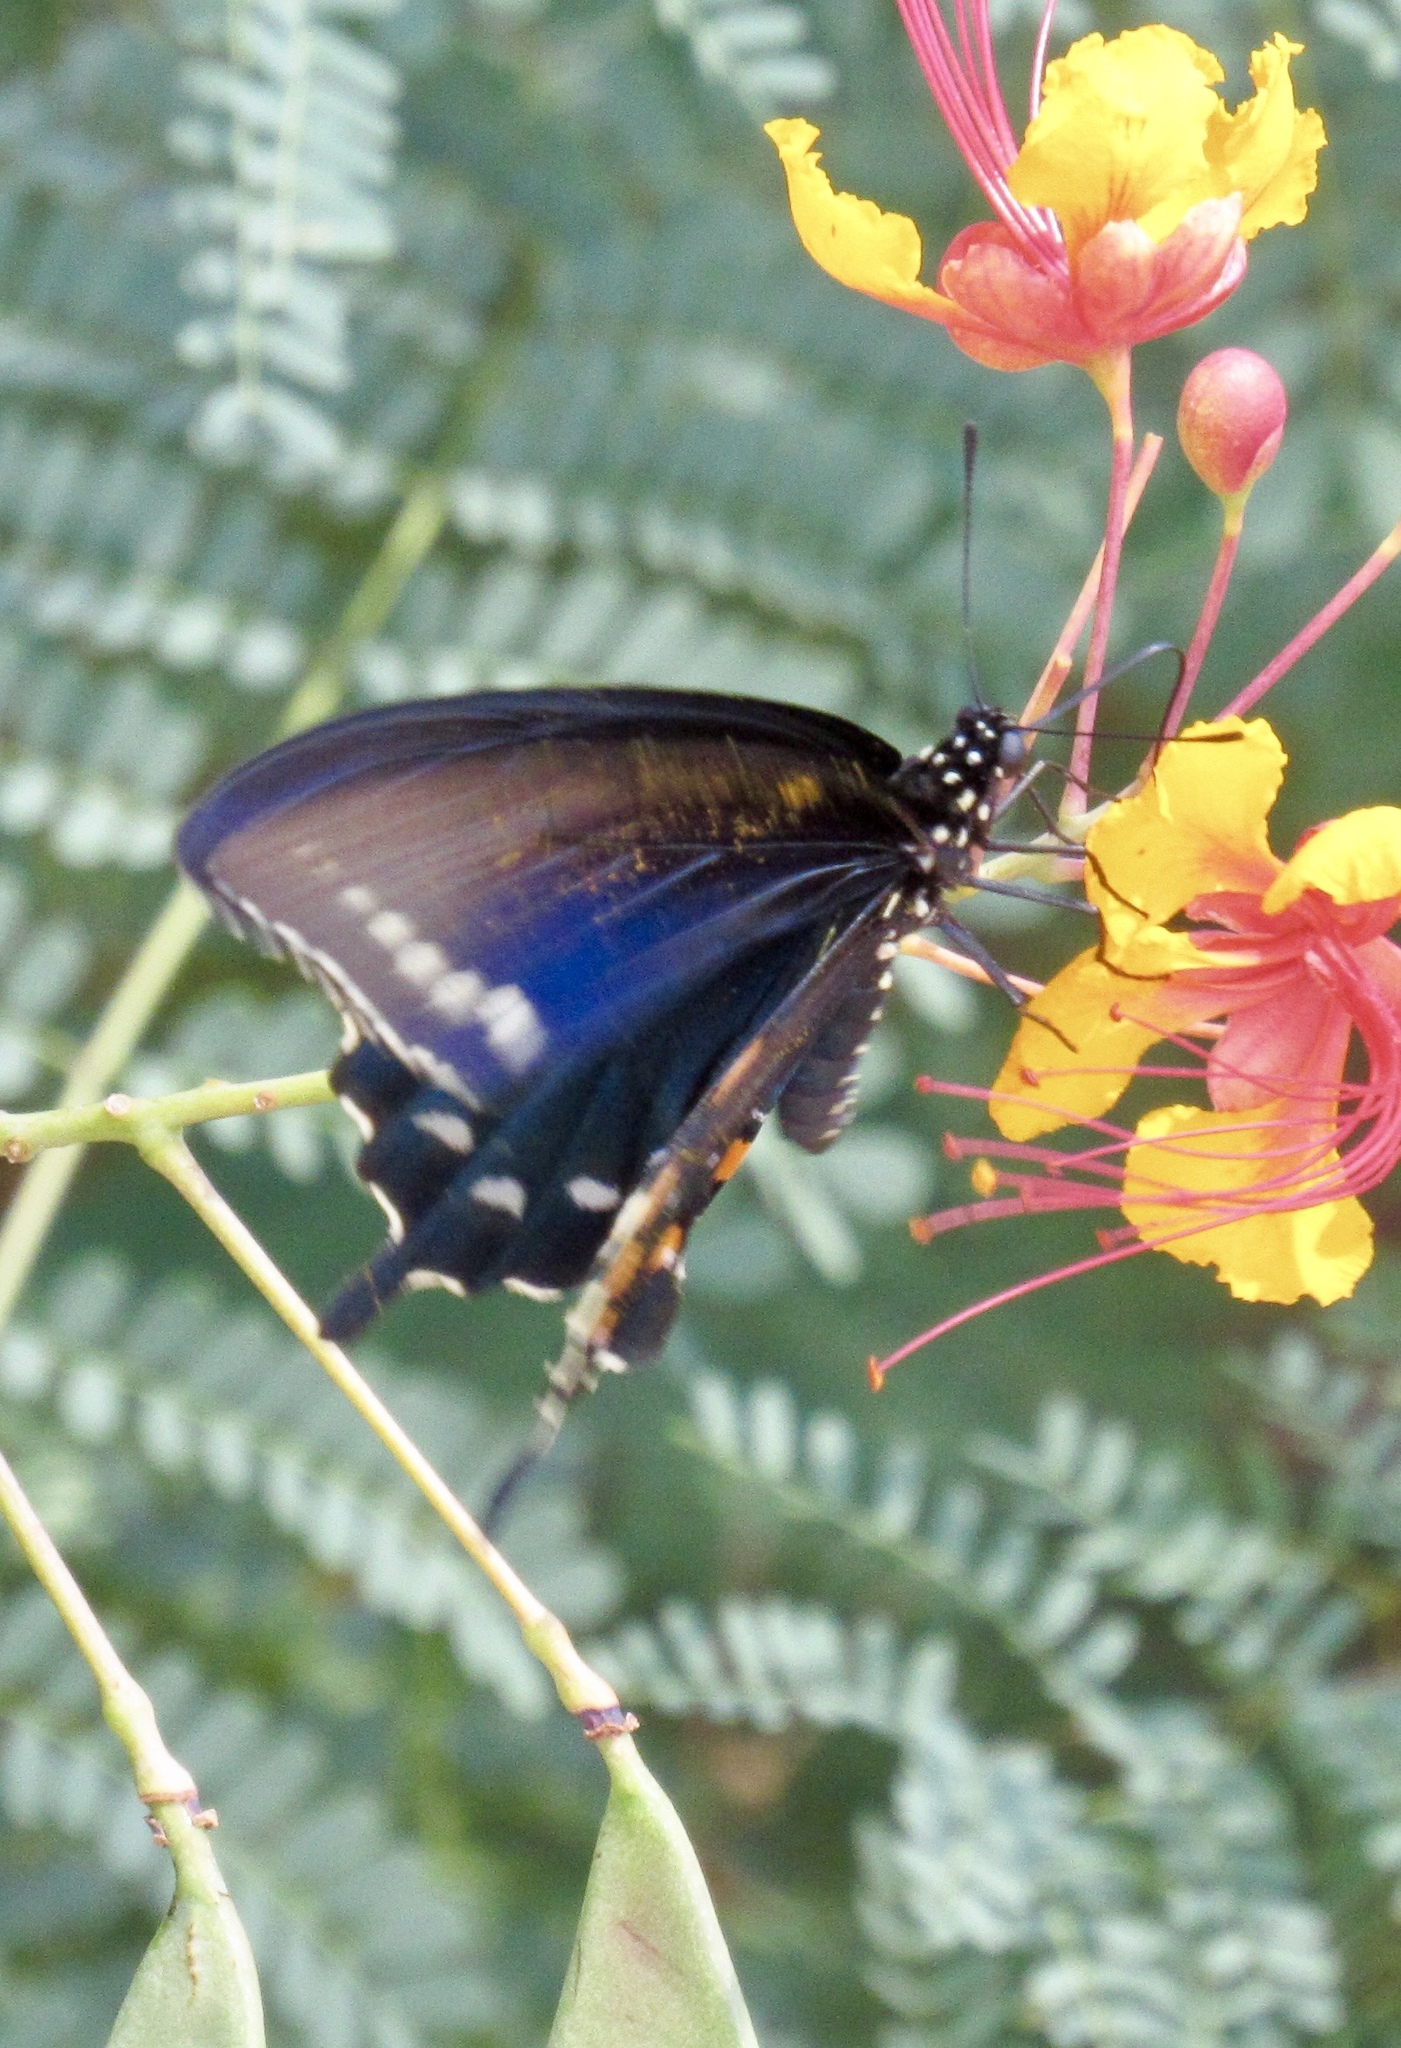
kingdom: Animalia
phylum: Arthropoda
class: Insecta
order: Lepidoptera
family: Papilionidae
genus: Battus
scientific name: Battus philenor
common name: Pipevine swallowtail
